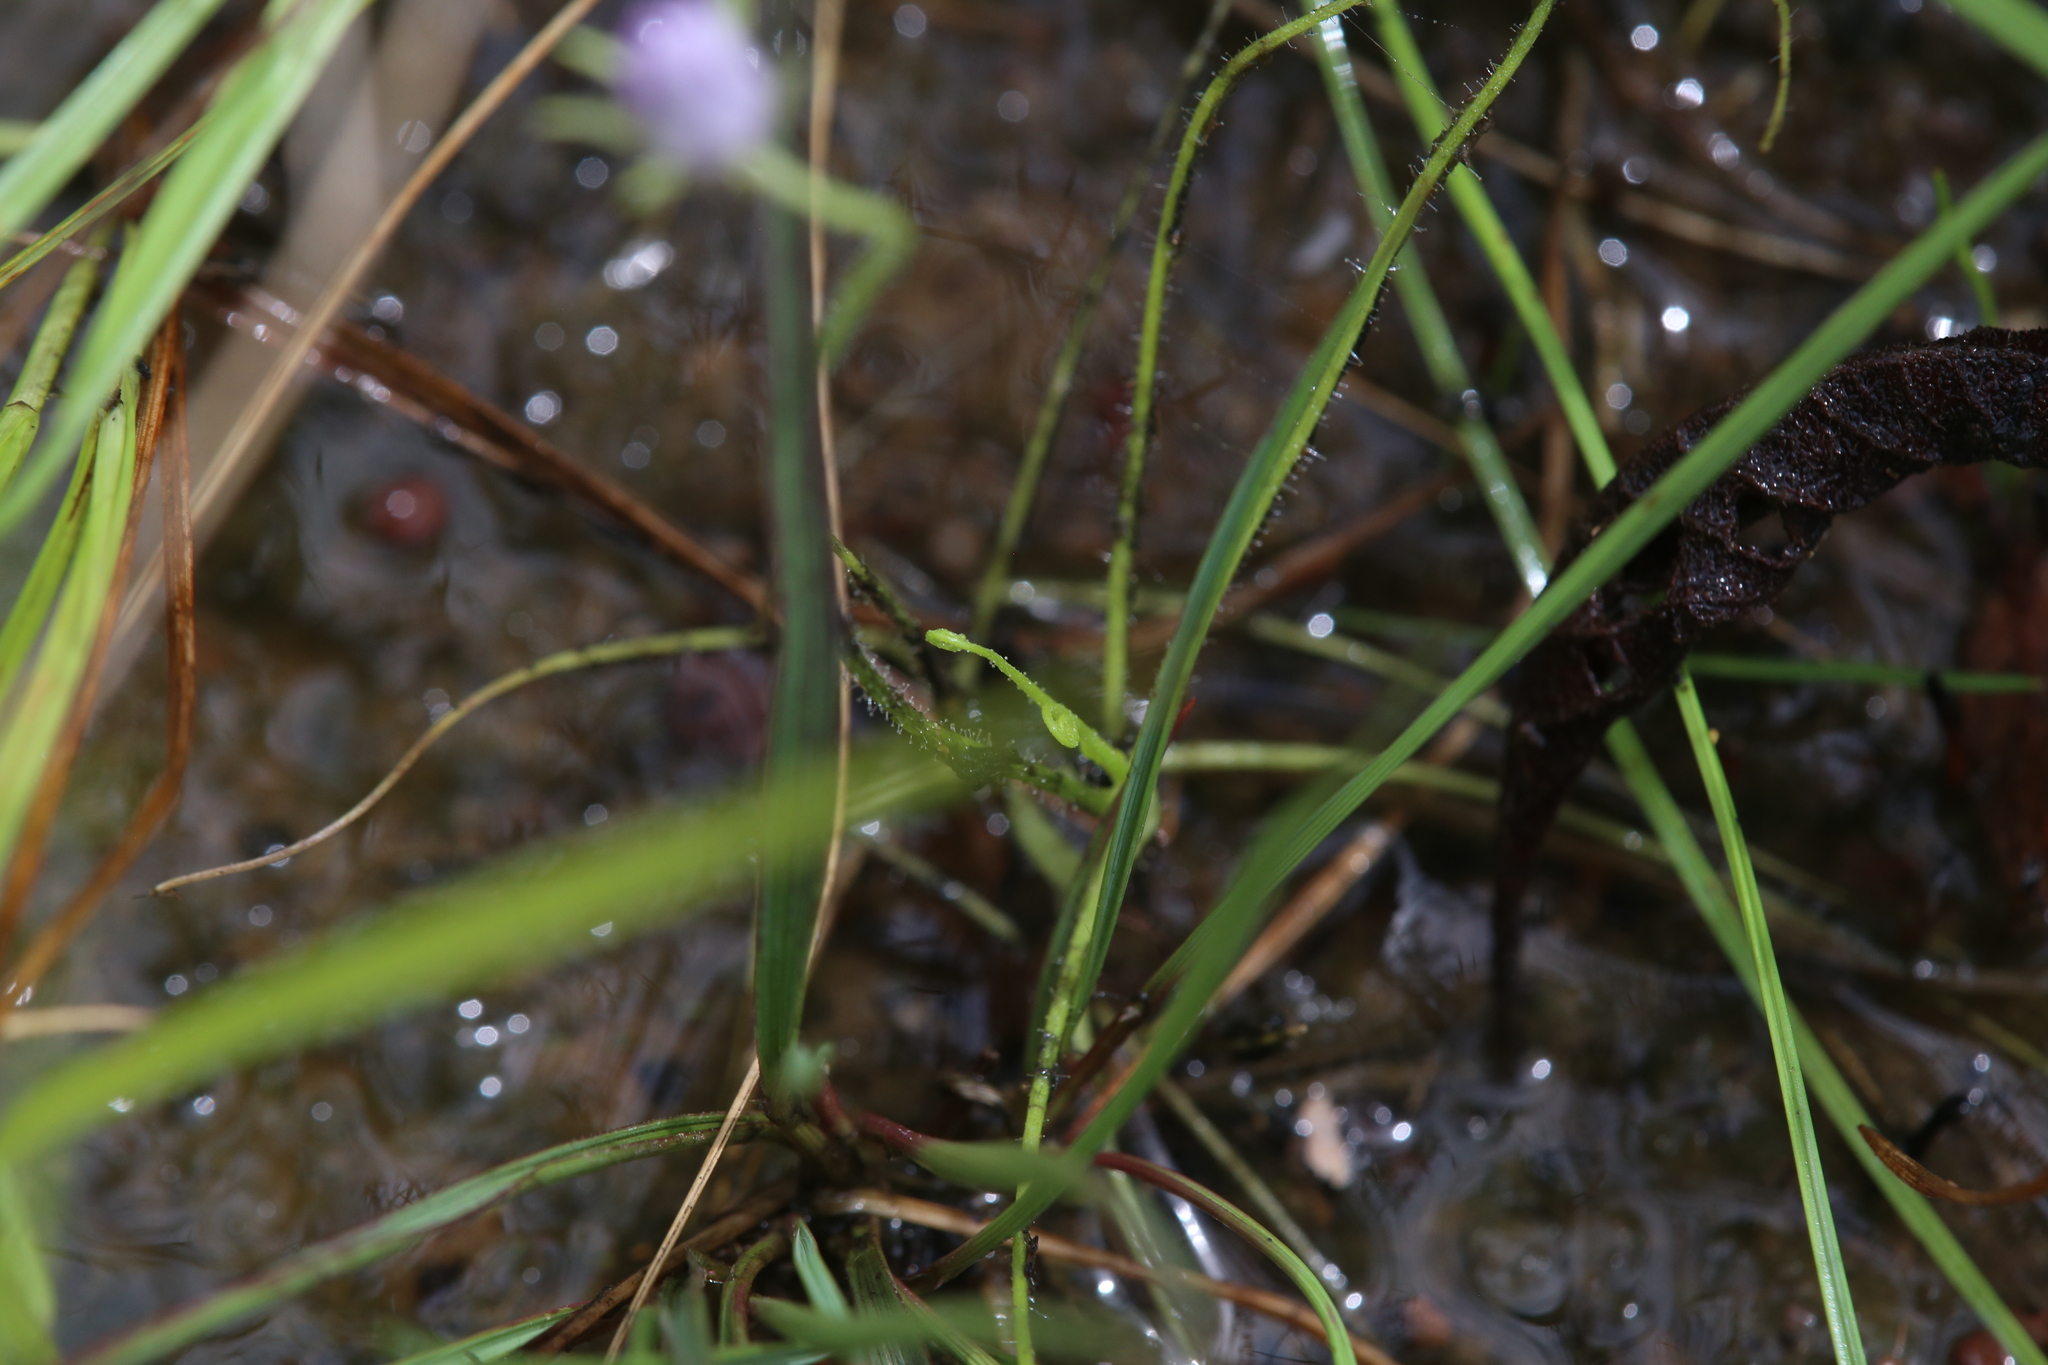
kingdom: Plantae
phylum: Tracheophyta
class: Magnoliopsida
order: Lamiales
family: Byblidaceae
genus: Byblis
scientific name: Byblis liniflora
